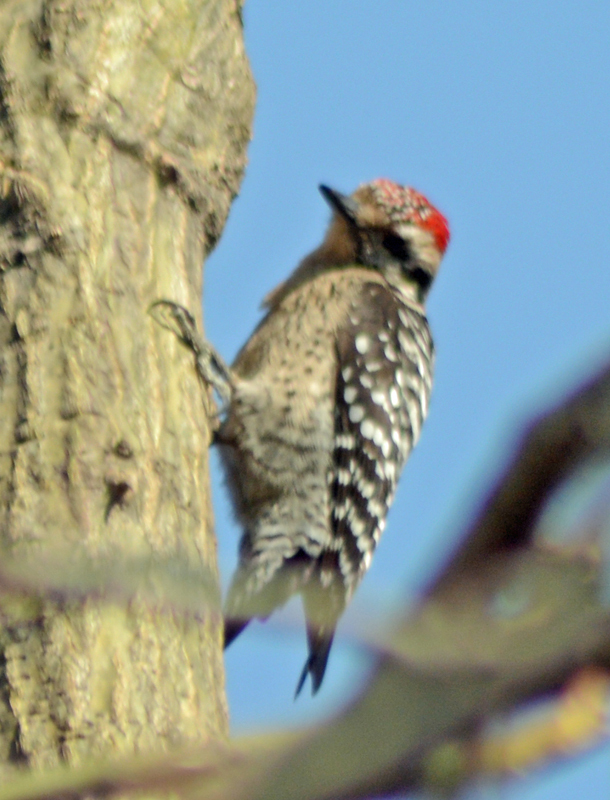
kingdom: Animalia
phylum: Chordata
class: Aves
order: Piciformes
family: Picidae
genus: Dryobates
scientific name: Dryobates scalaris
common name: Ladder-backed woodpecker
